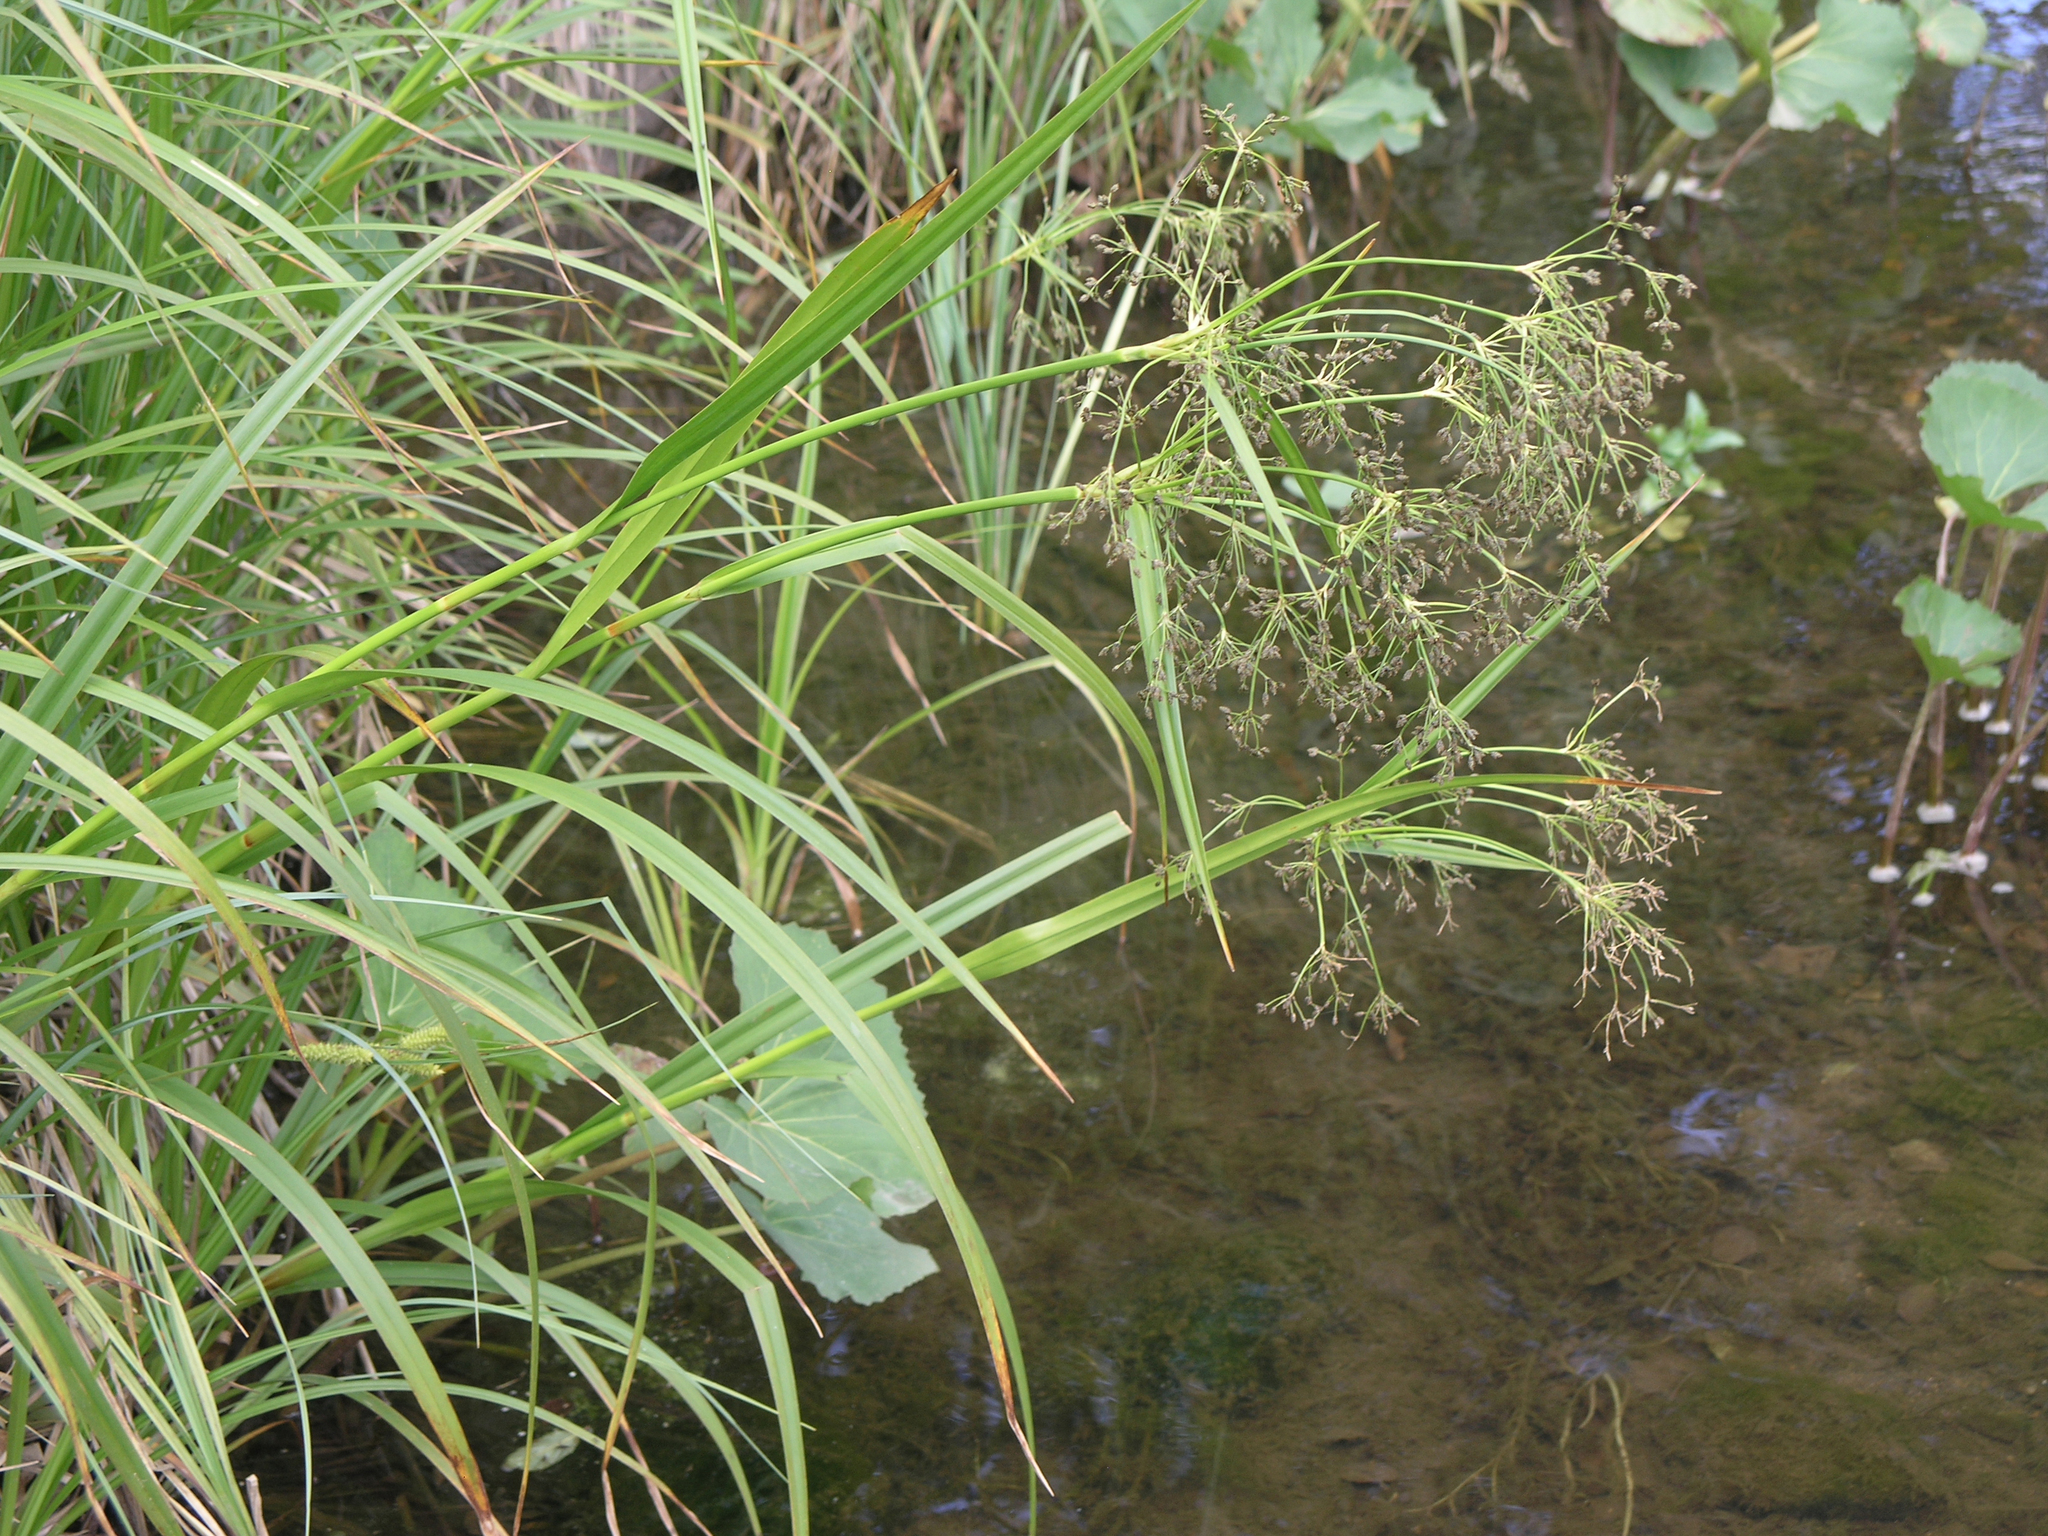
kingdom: Plantae
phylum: Tracheophyta
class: Liliopsida
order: Poales
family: Cyperaceae
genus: Scirpus
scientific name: Scirpus sylvaticus
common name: Wood club-rush
